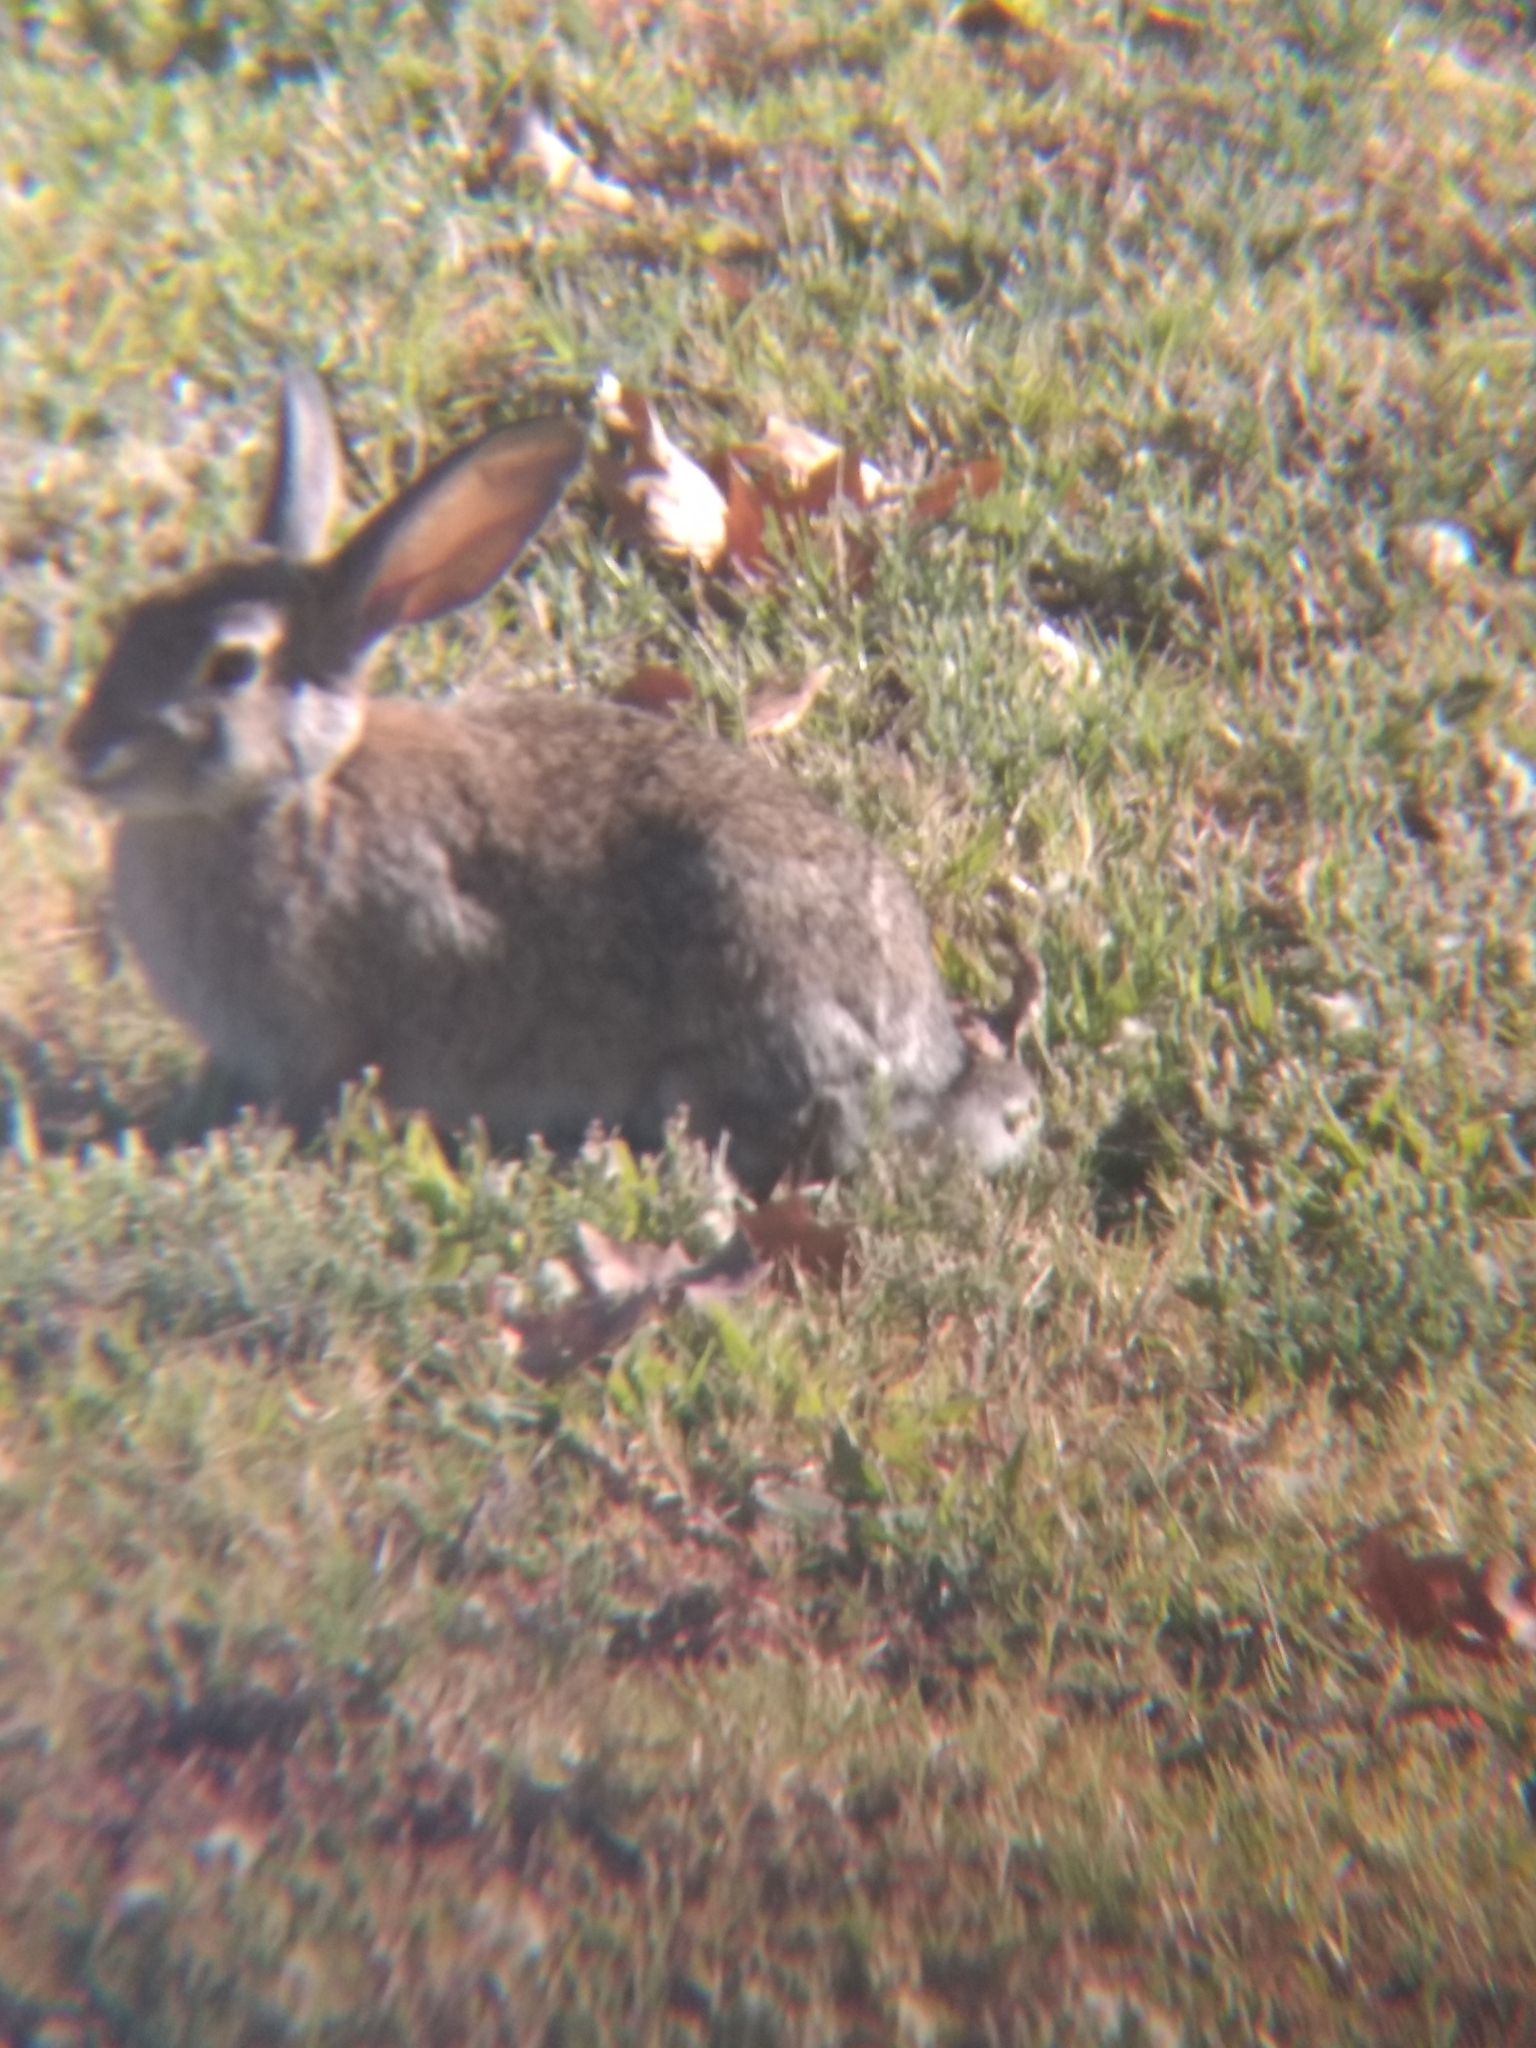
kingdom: Animalia
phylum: Chordata
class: Mammalia
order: Lagomorpha
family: Leporidae
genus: Sylvilagus
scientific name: Sylvilagus audubonii
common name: Desert cottontail
